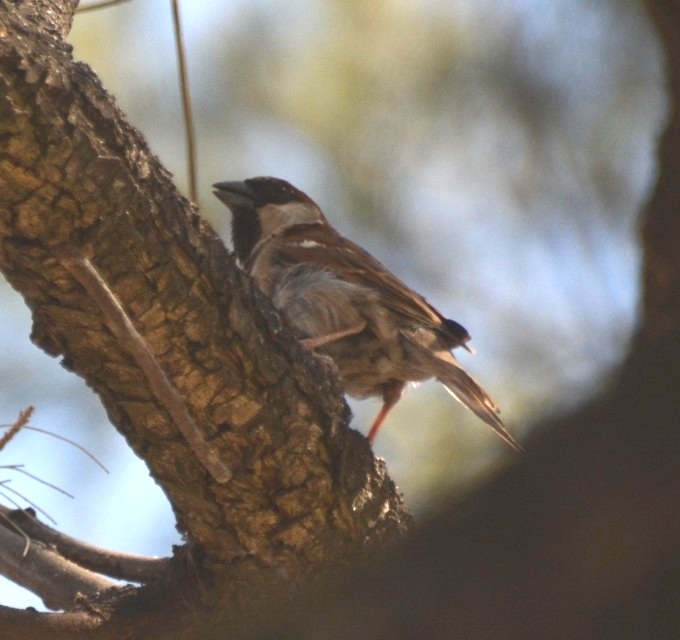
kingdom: Animalia
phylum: Chordata
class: Aves
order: Passeriformes
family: Passeridae
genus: Passer
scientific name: Passer domesticus
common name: House sparrow
